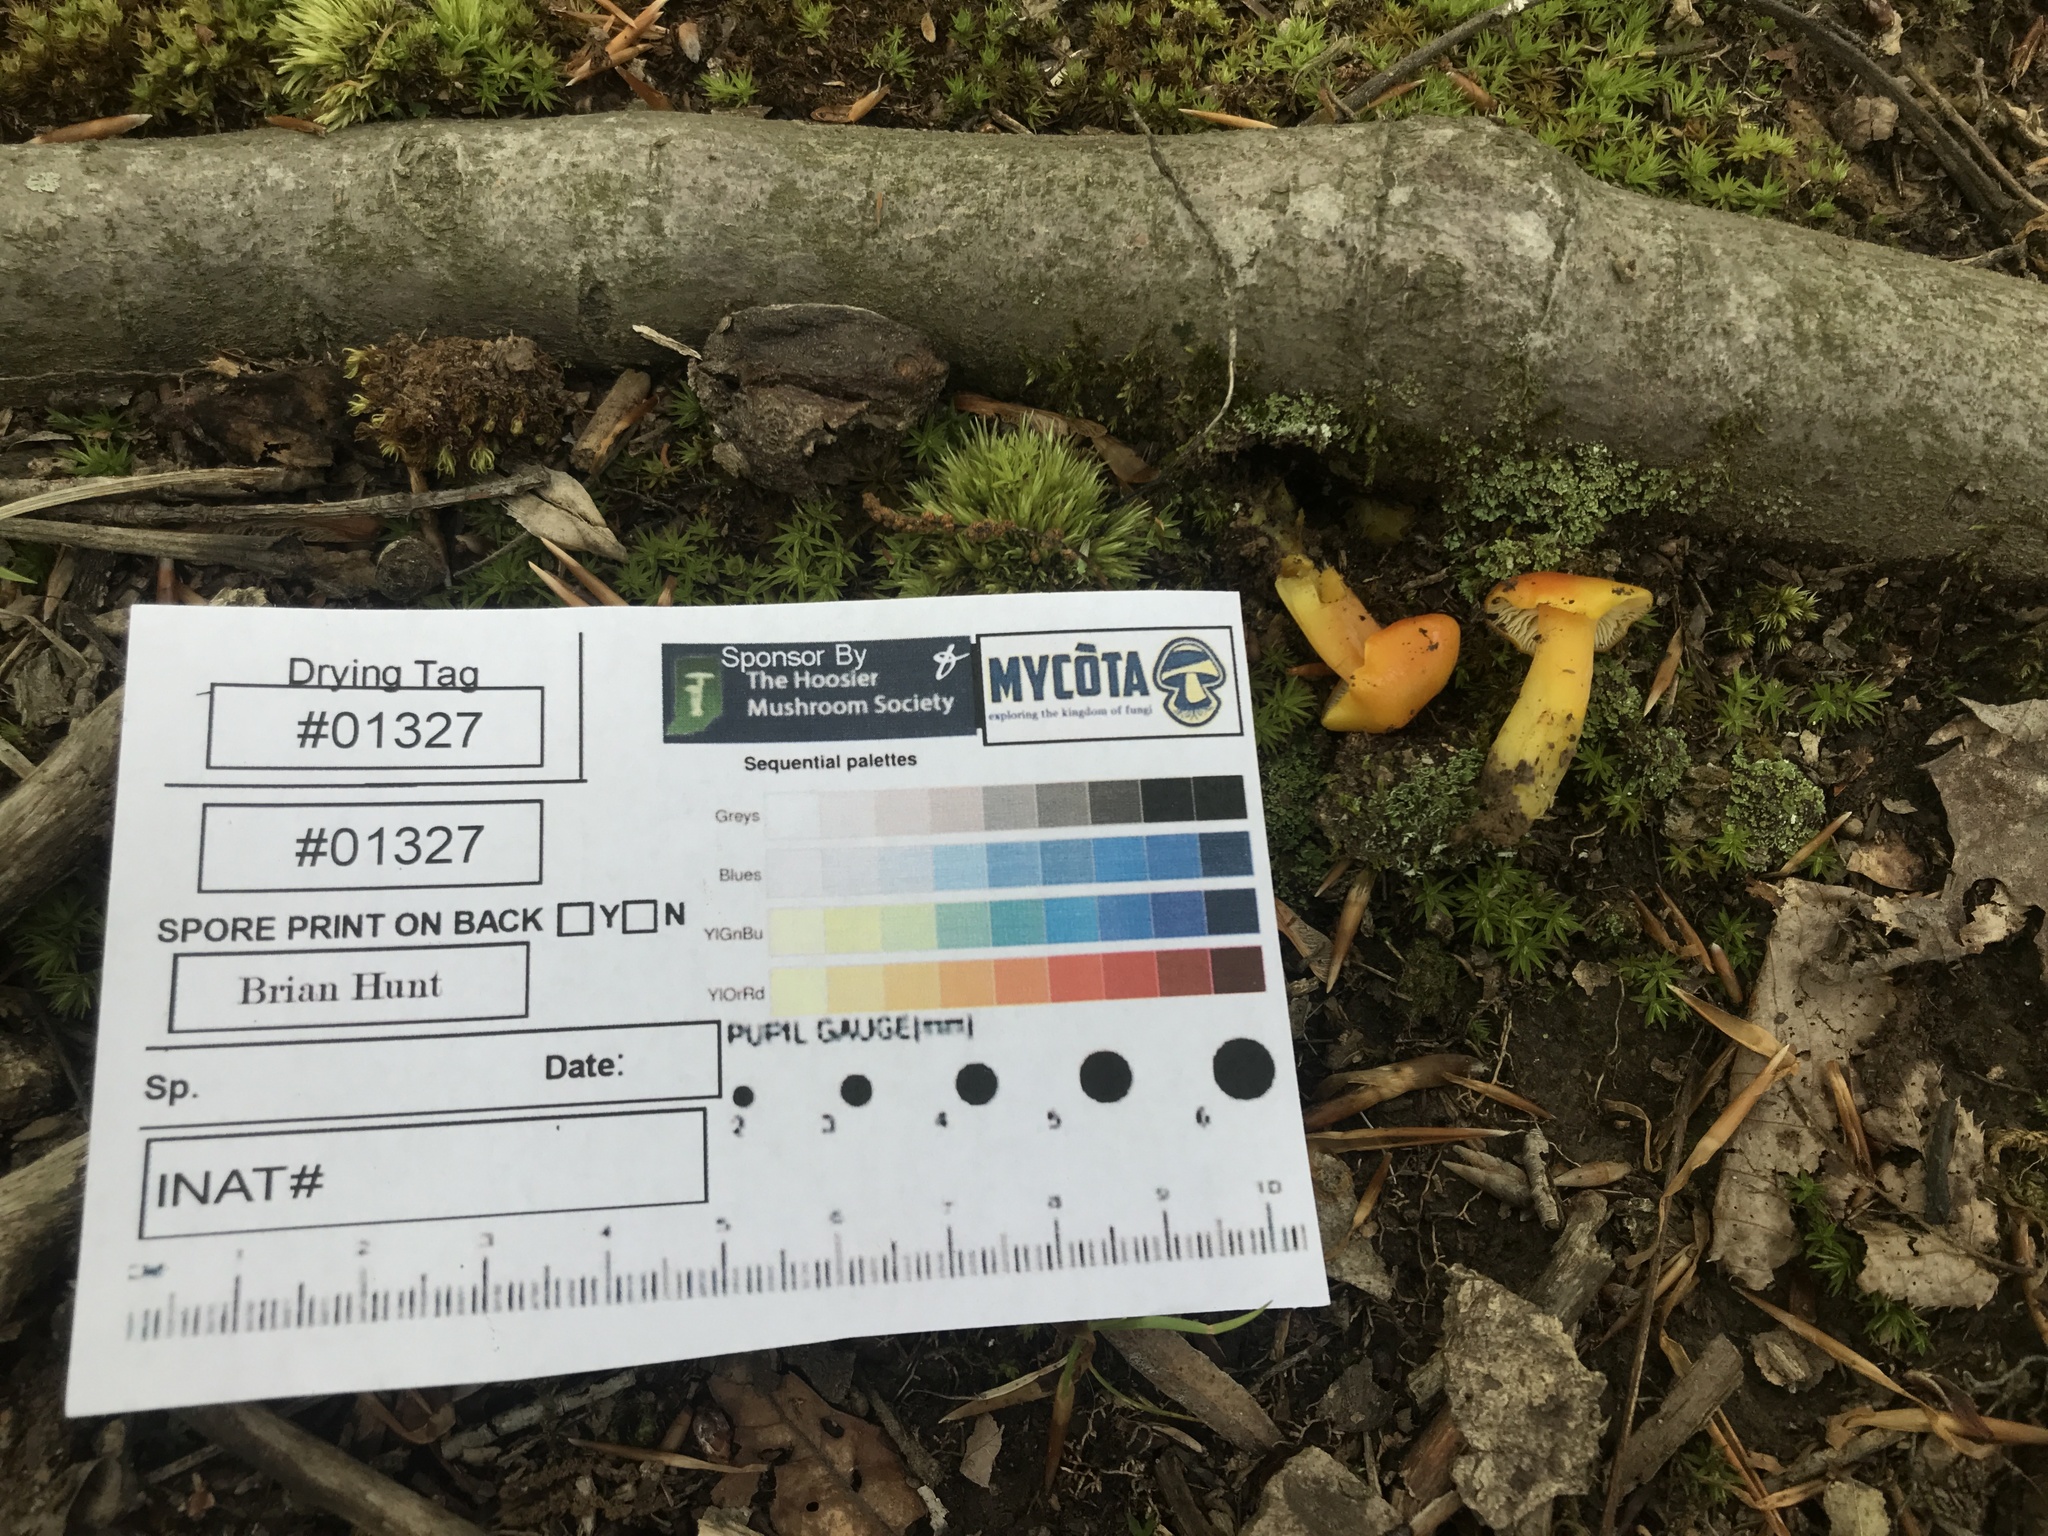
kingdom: Fungi
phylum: Basidiomycota
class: Agaricomycetes
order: Agaricales
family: Hygrophoraceae
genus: Hygrocybe
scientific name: Hygrocybe chlorophana
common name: Golden waxcap
